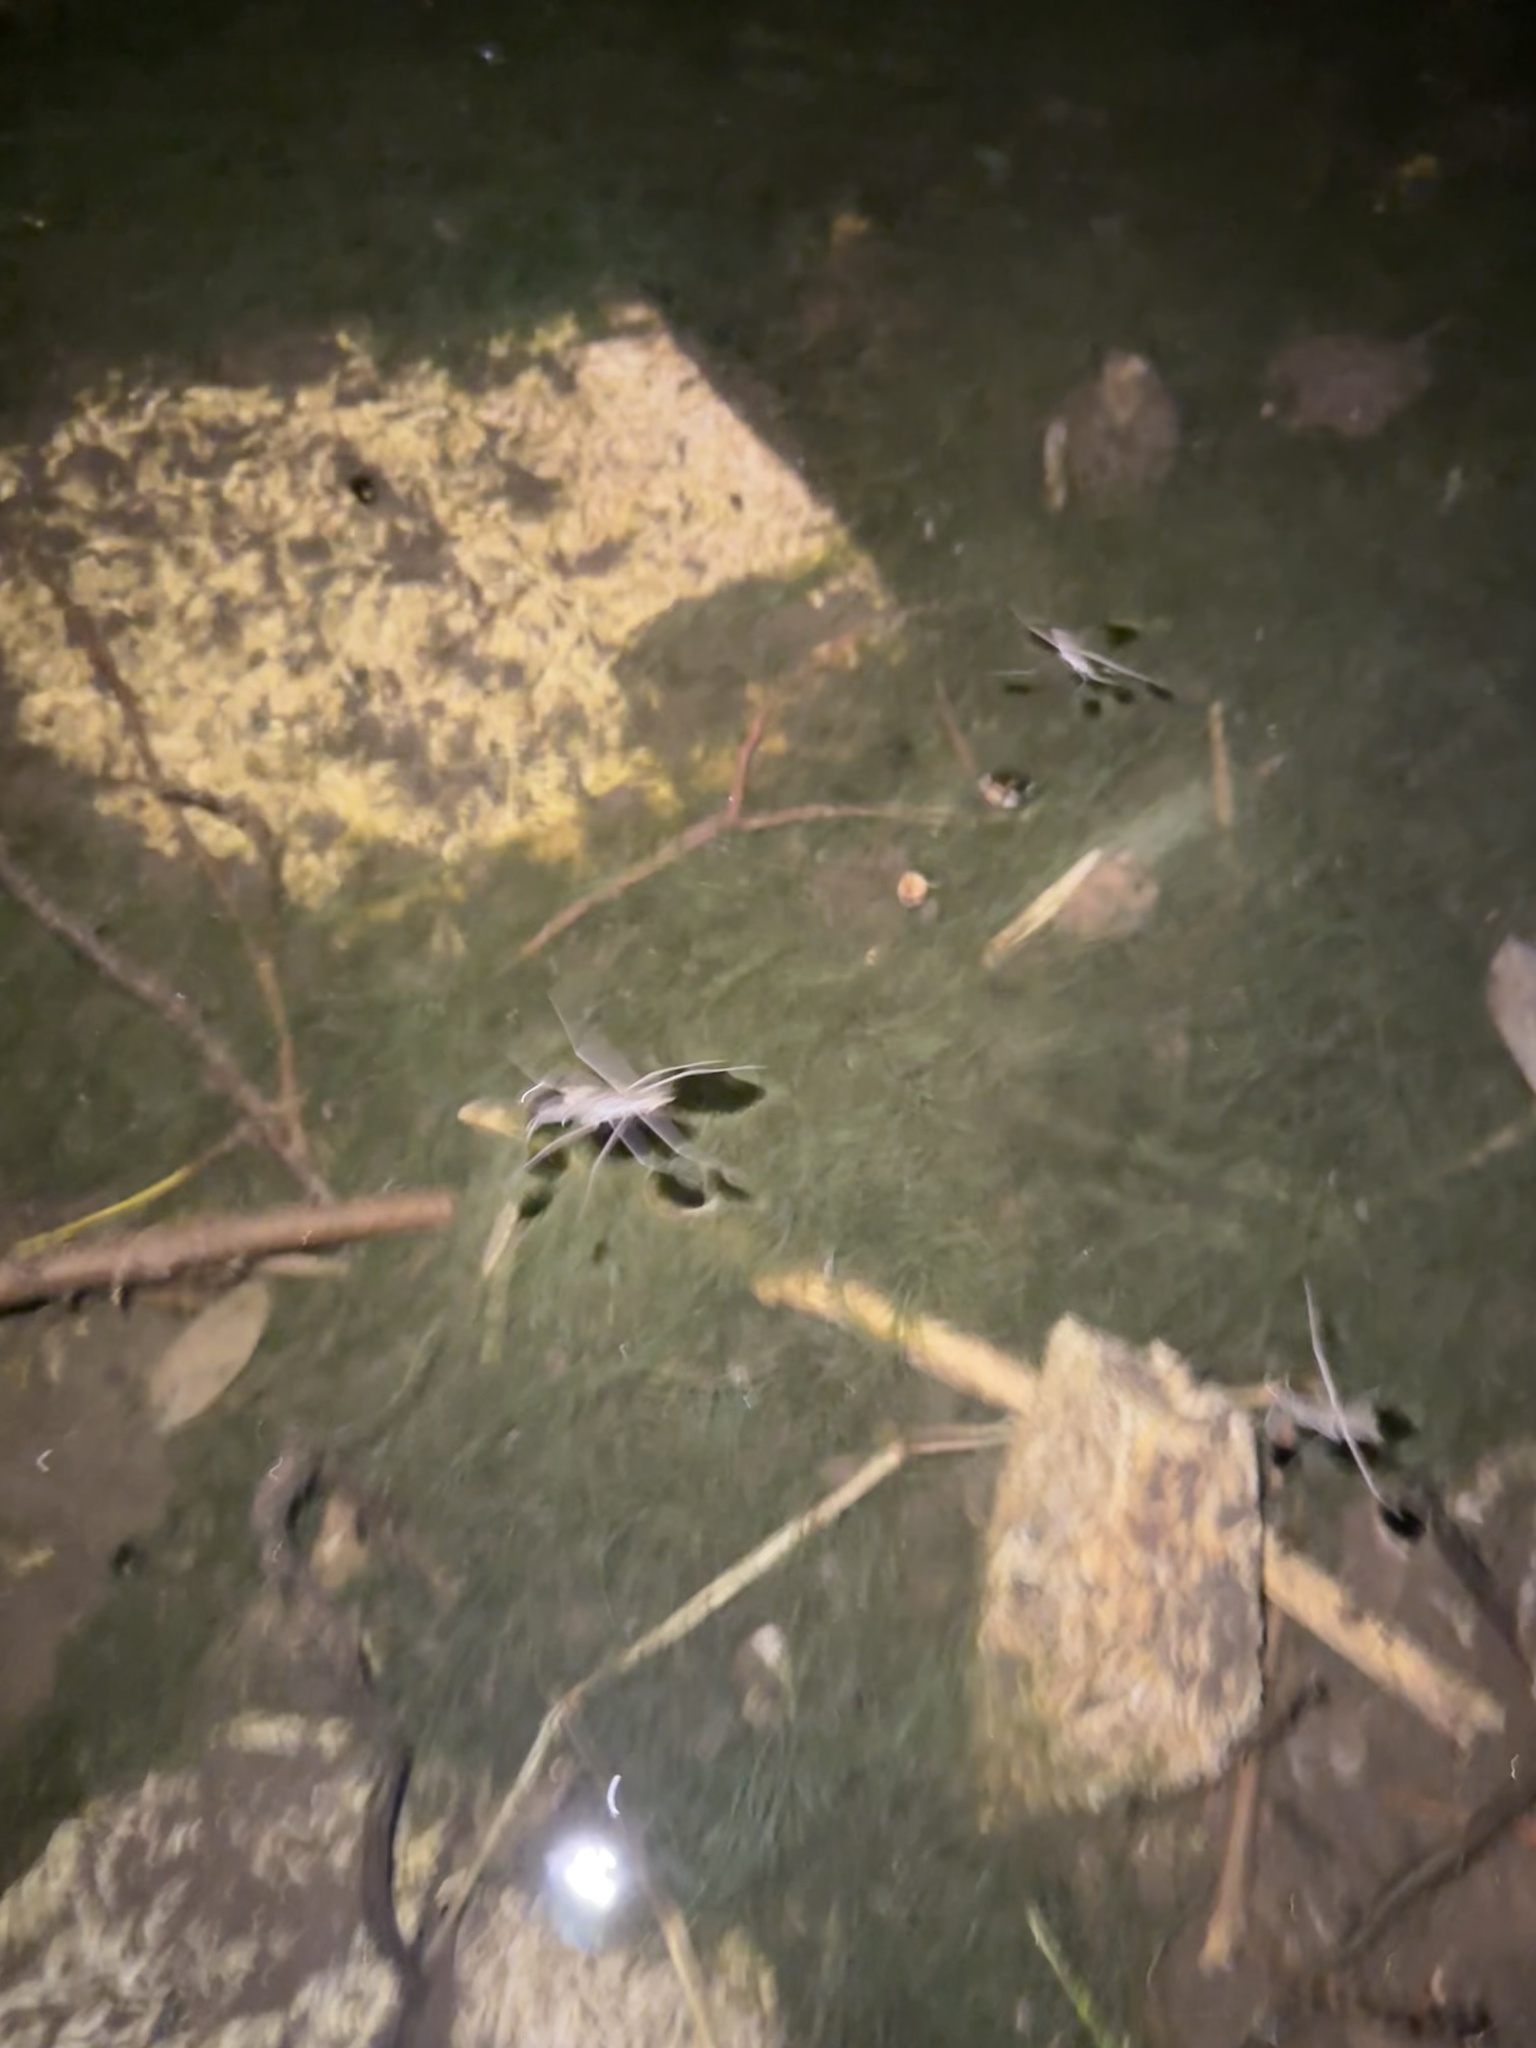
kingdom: Animalia
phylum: Arthropoda
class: Insecta
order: Hemiptera
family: Gerridae
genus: Aquarius
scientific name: Aquarius remigis
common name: Common water strider
